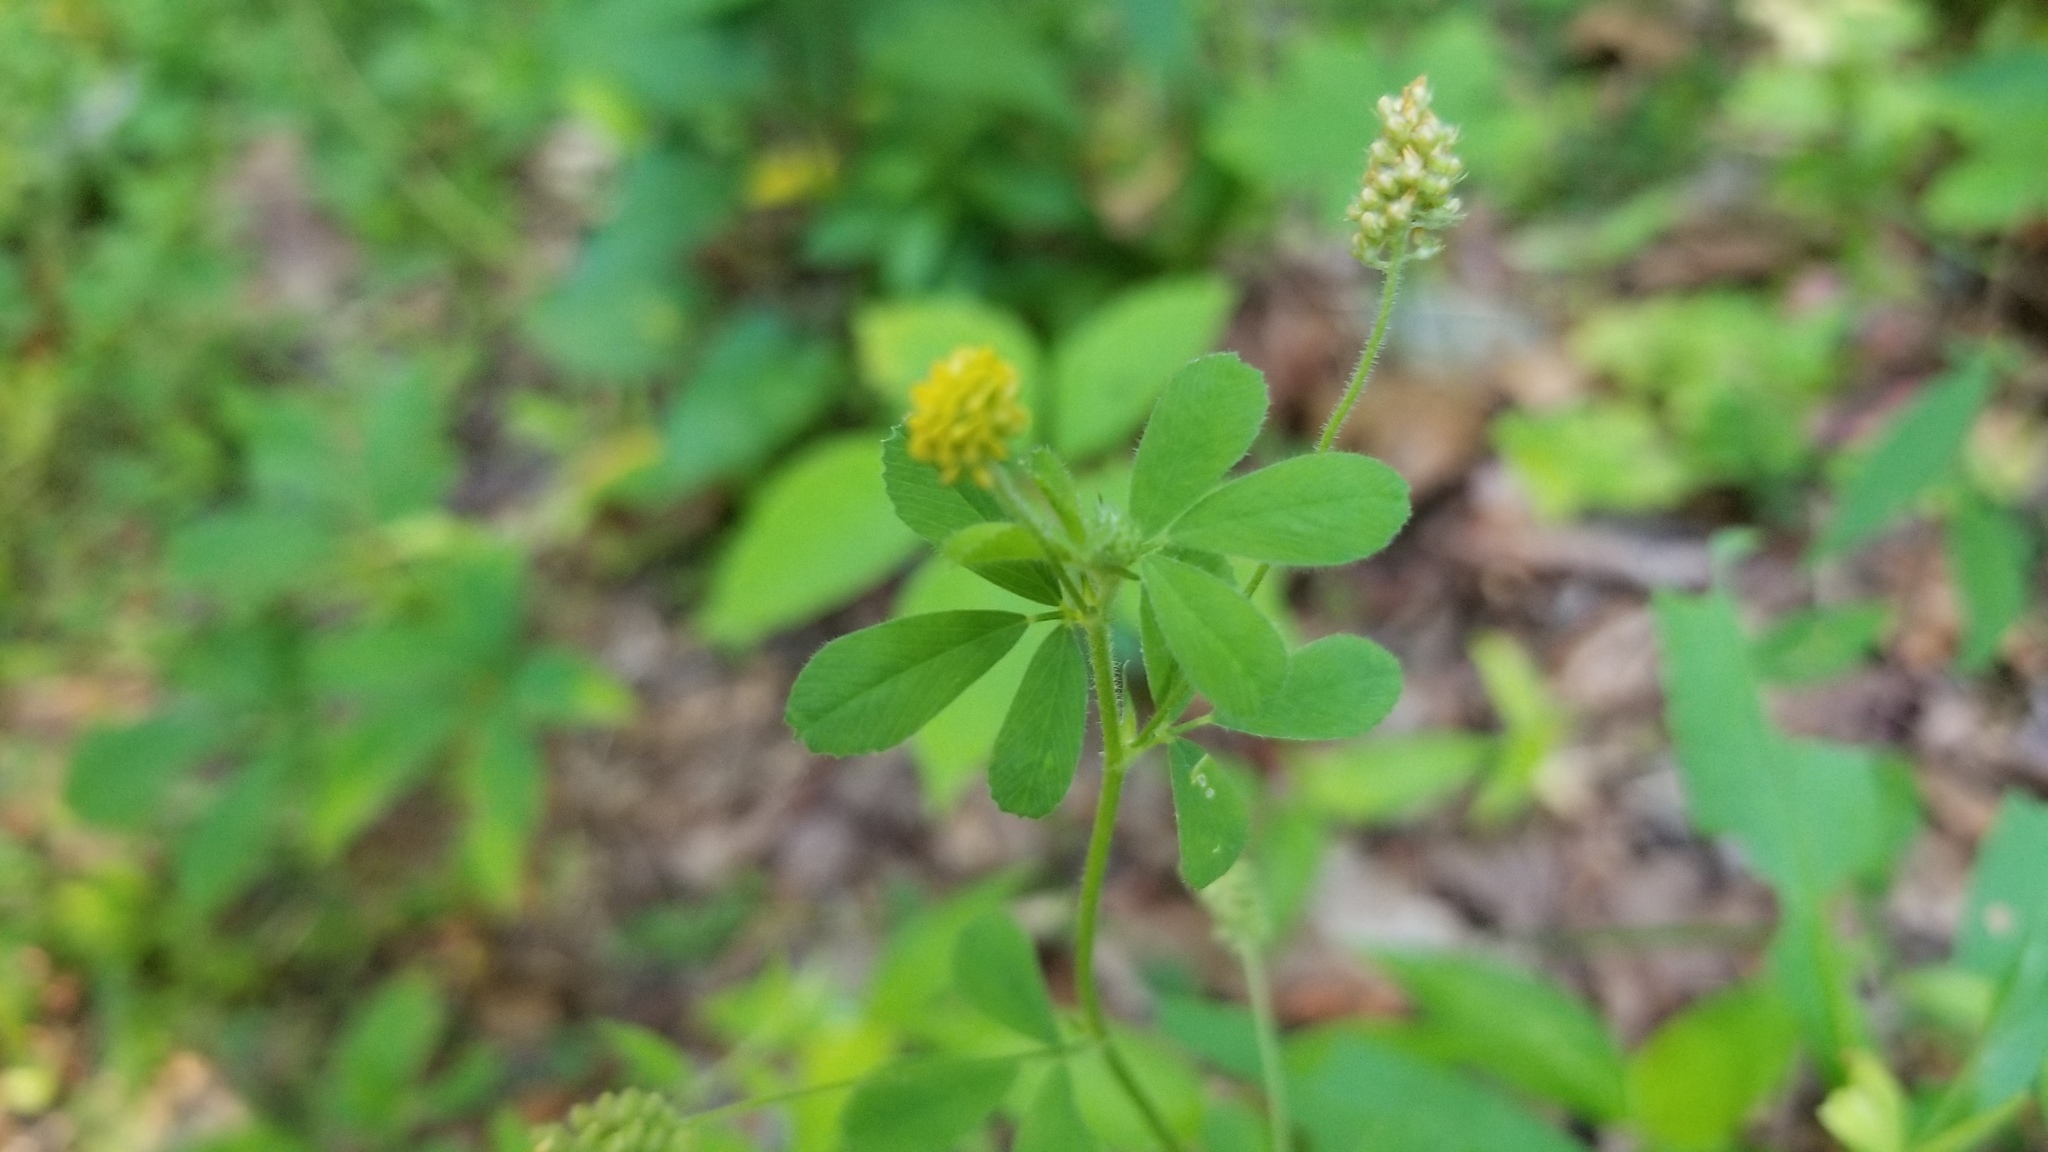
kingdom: Plantae
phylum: Tracheophyta
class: Magnoliopsida
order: Fabales
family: Fabaceae
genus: Medicago
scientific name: Medicago lupulina
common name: Black medick
